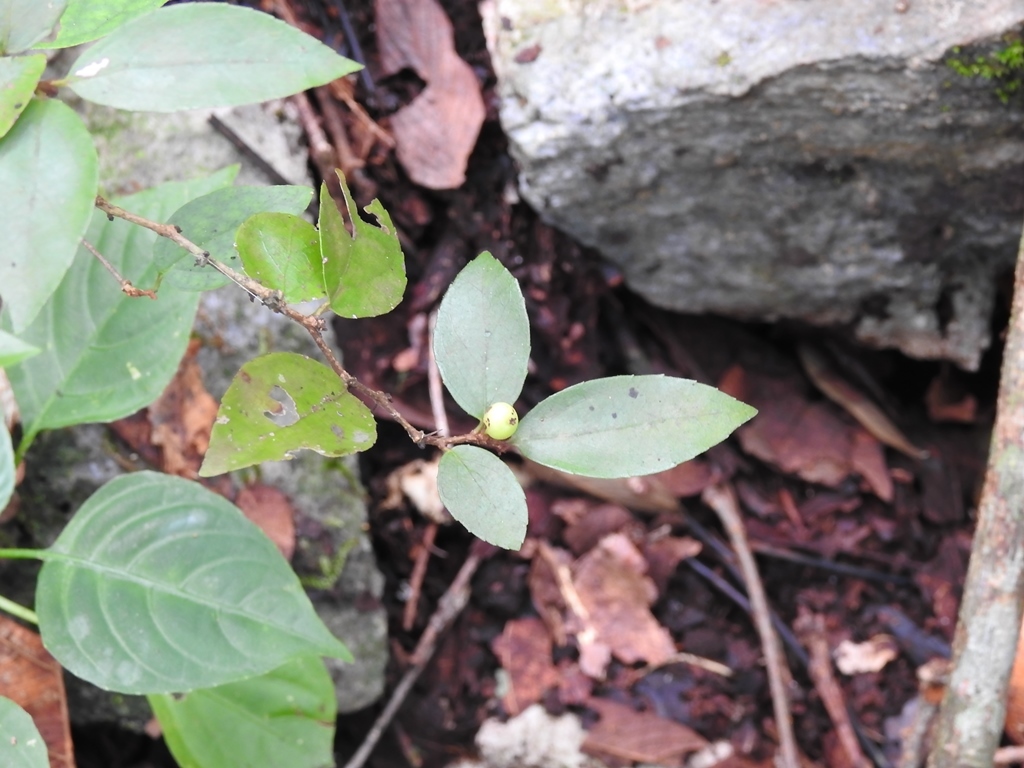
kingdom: Plantae
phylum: Tracheophyta
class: Magnoliopsida
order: Malpighiales
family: Salicaceae
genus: Xylosma
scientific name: Xylosma chiapensis
